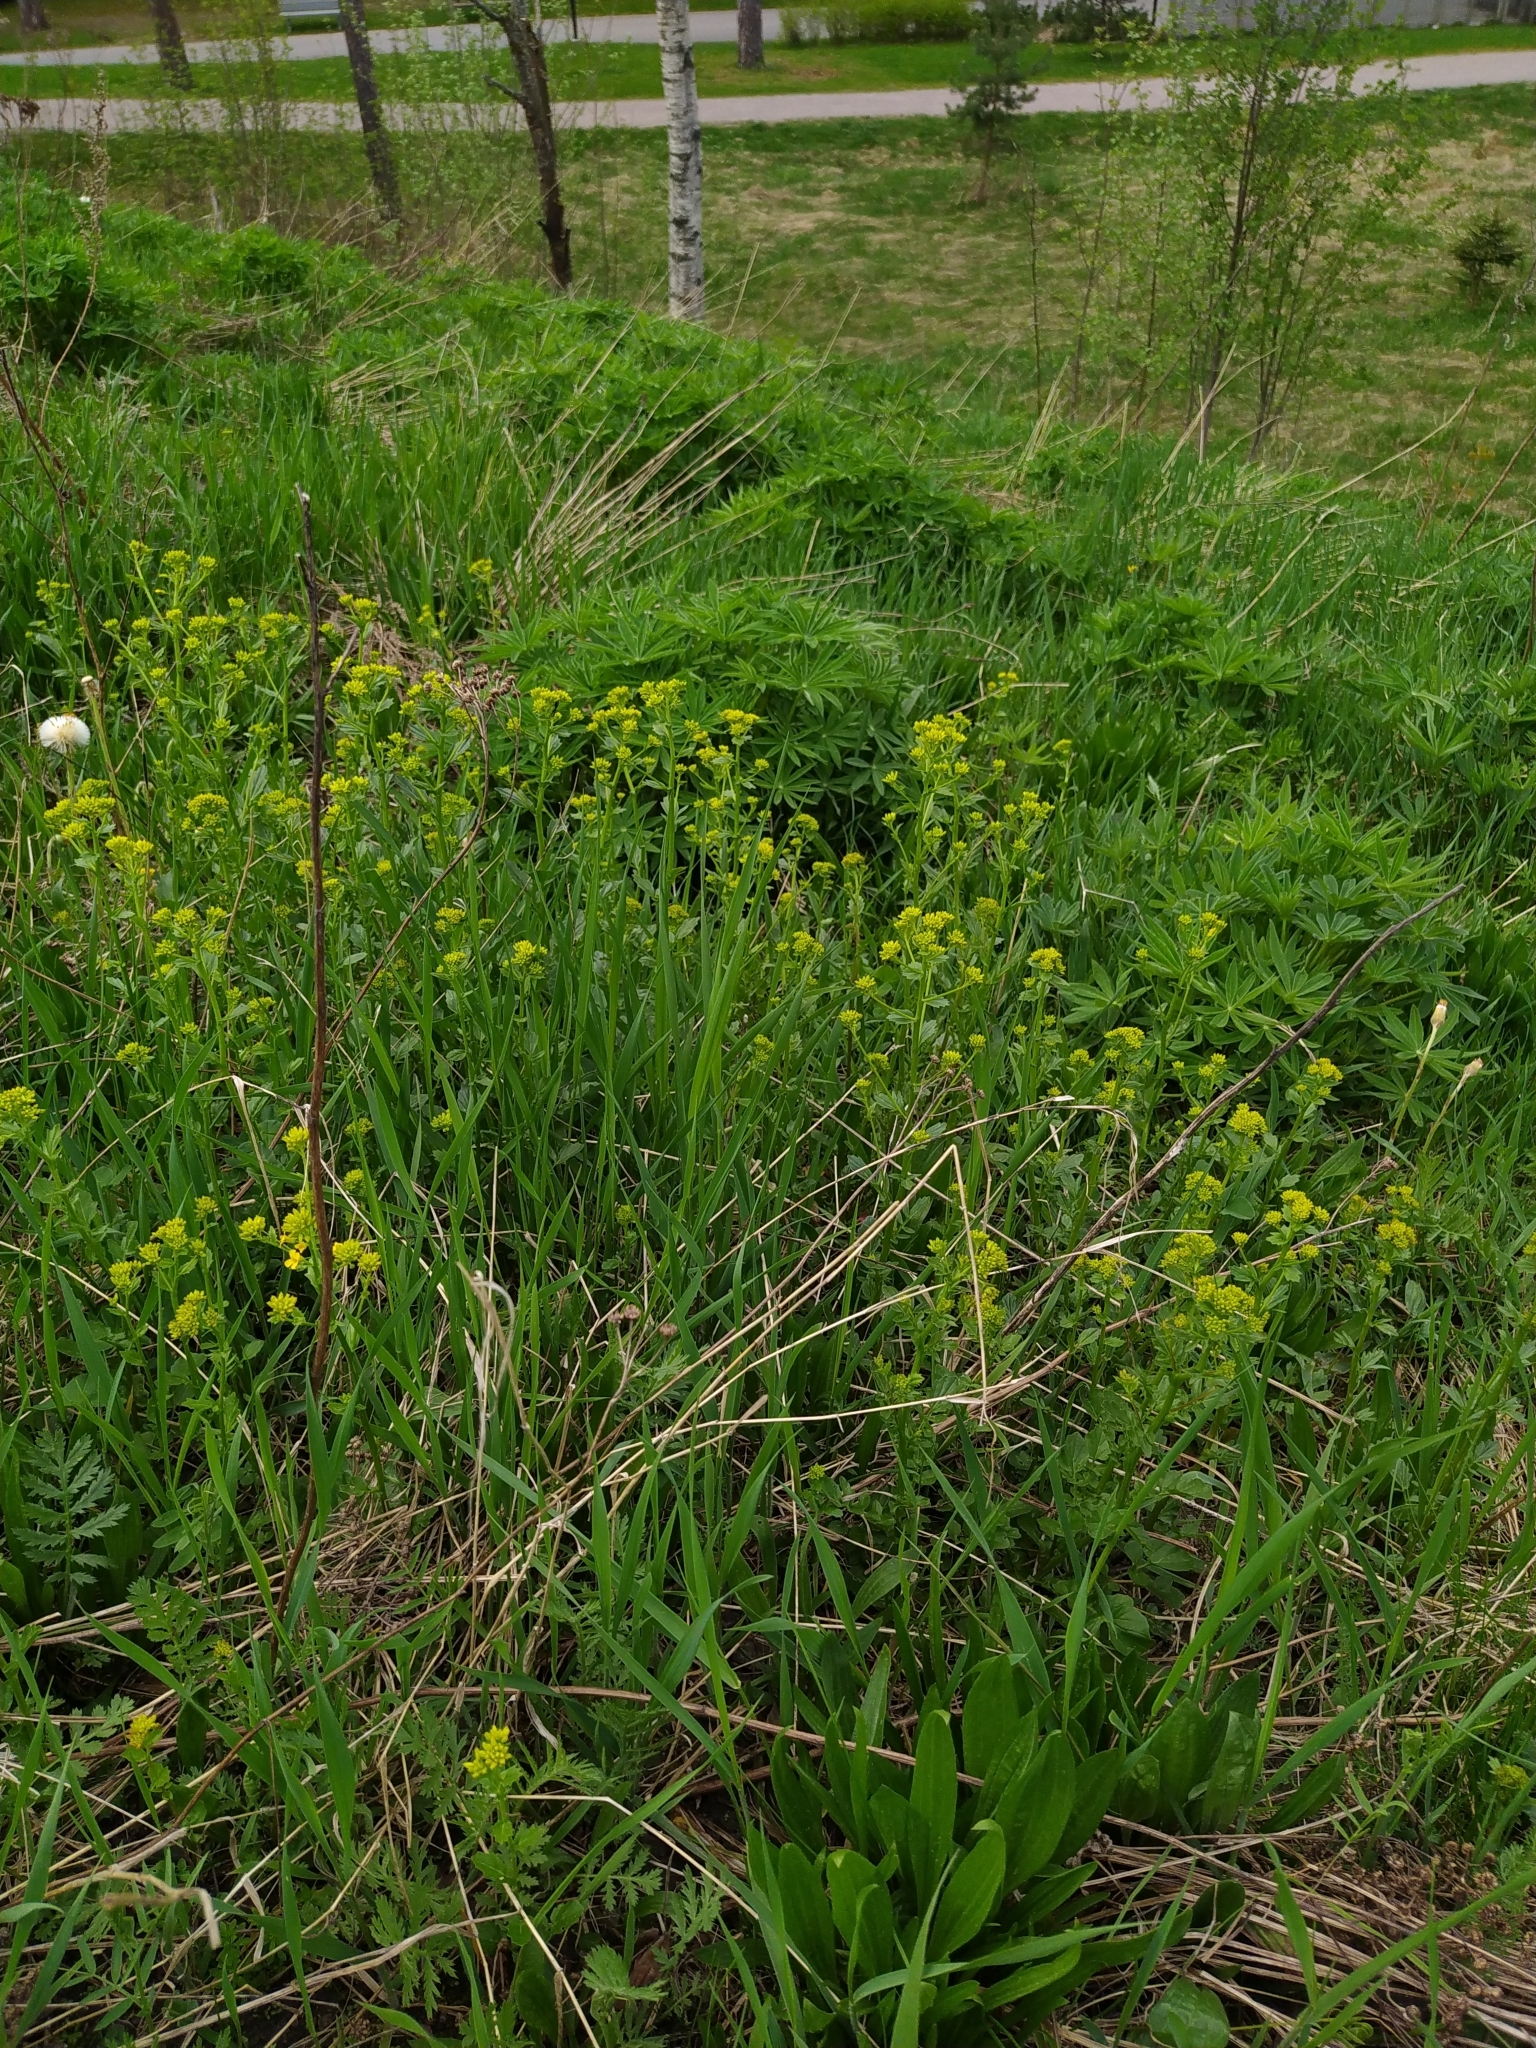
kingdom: Plantae
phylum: Tracheophyta
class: Magnoliopsida
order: Brassicales
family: Brassicaceae
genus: Barbarea
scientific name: Barbarea vulgaris
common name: Cressy-greens
